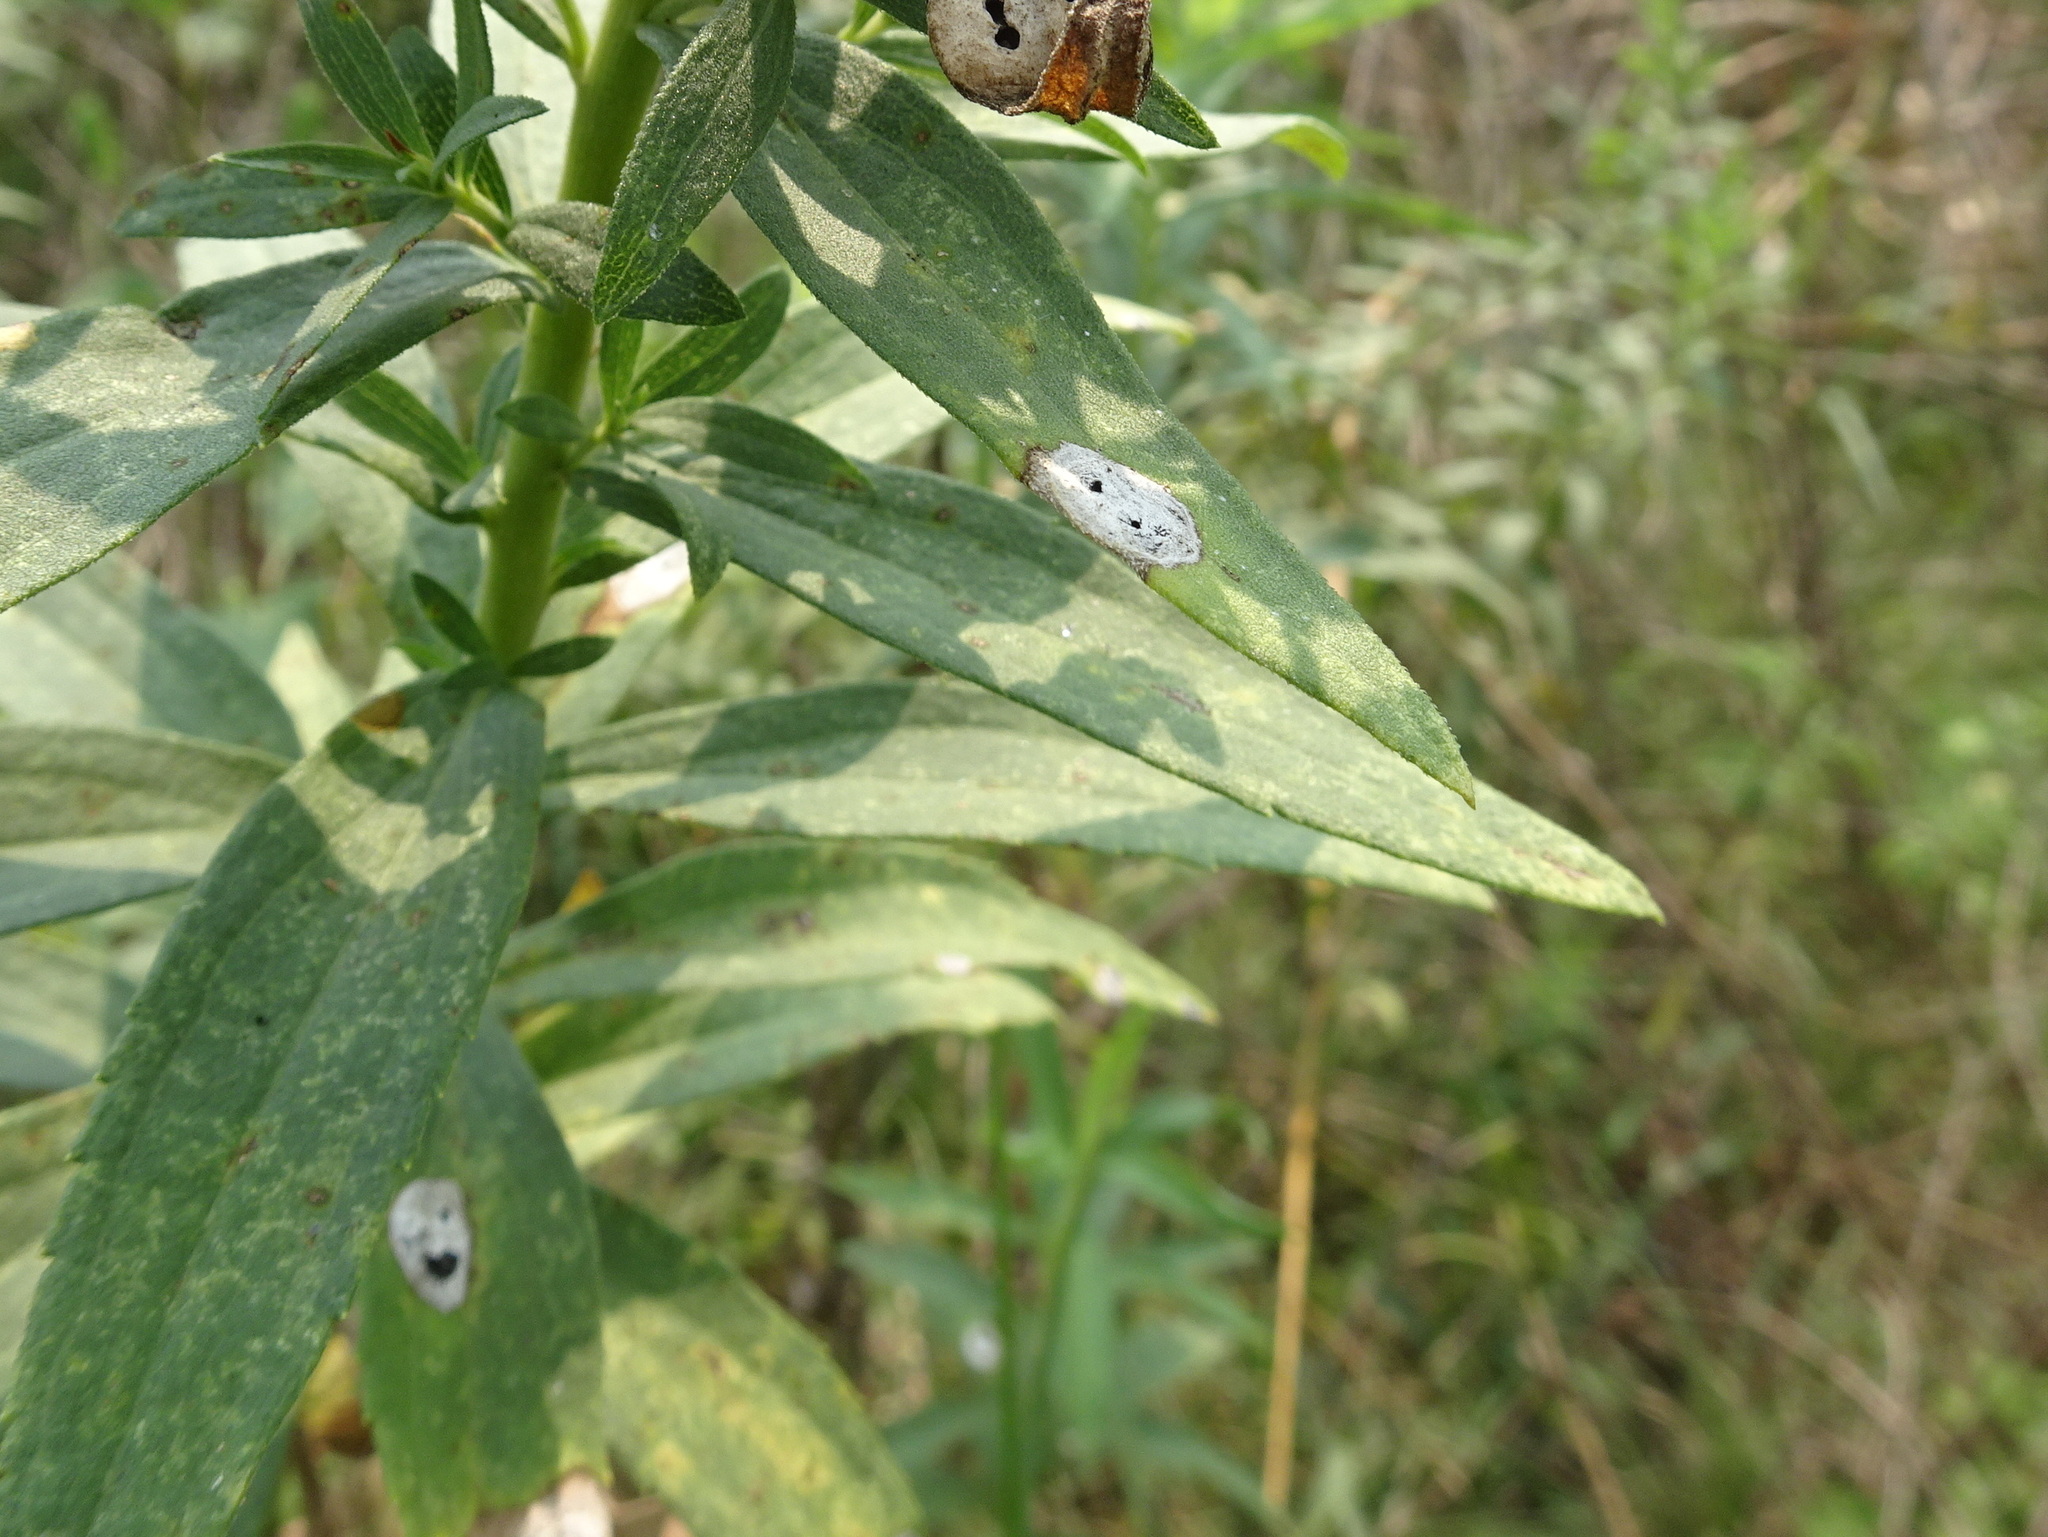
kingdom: Animalia
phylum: Arthropoda
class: Insecta
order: Diptera
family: Cecidomyiidae
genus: Asteromyia
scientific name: Asteromyia carbonifera
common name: Carbonifera goldenrod gall midge
